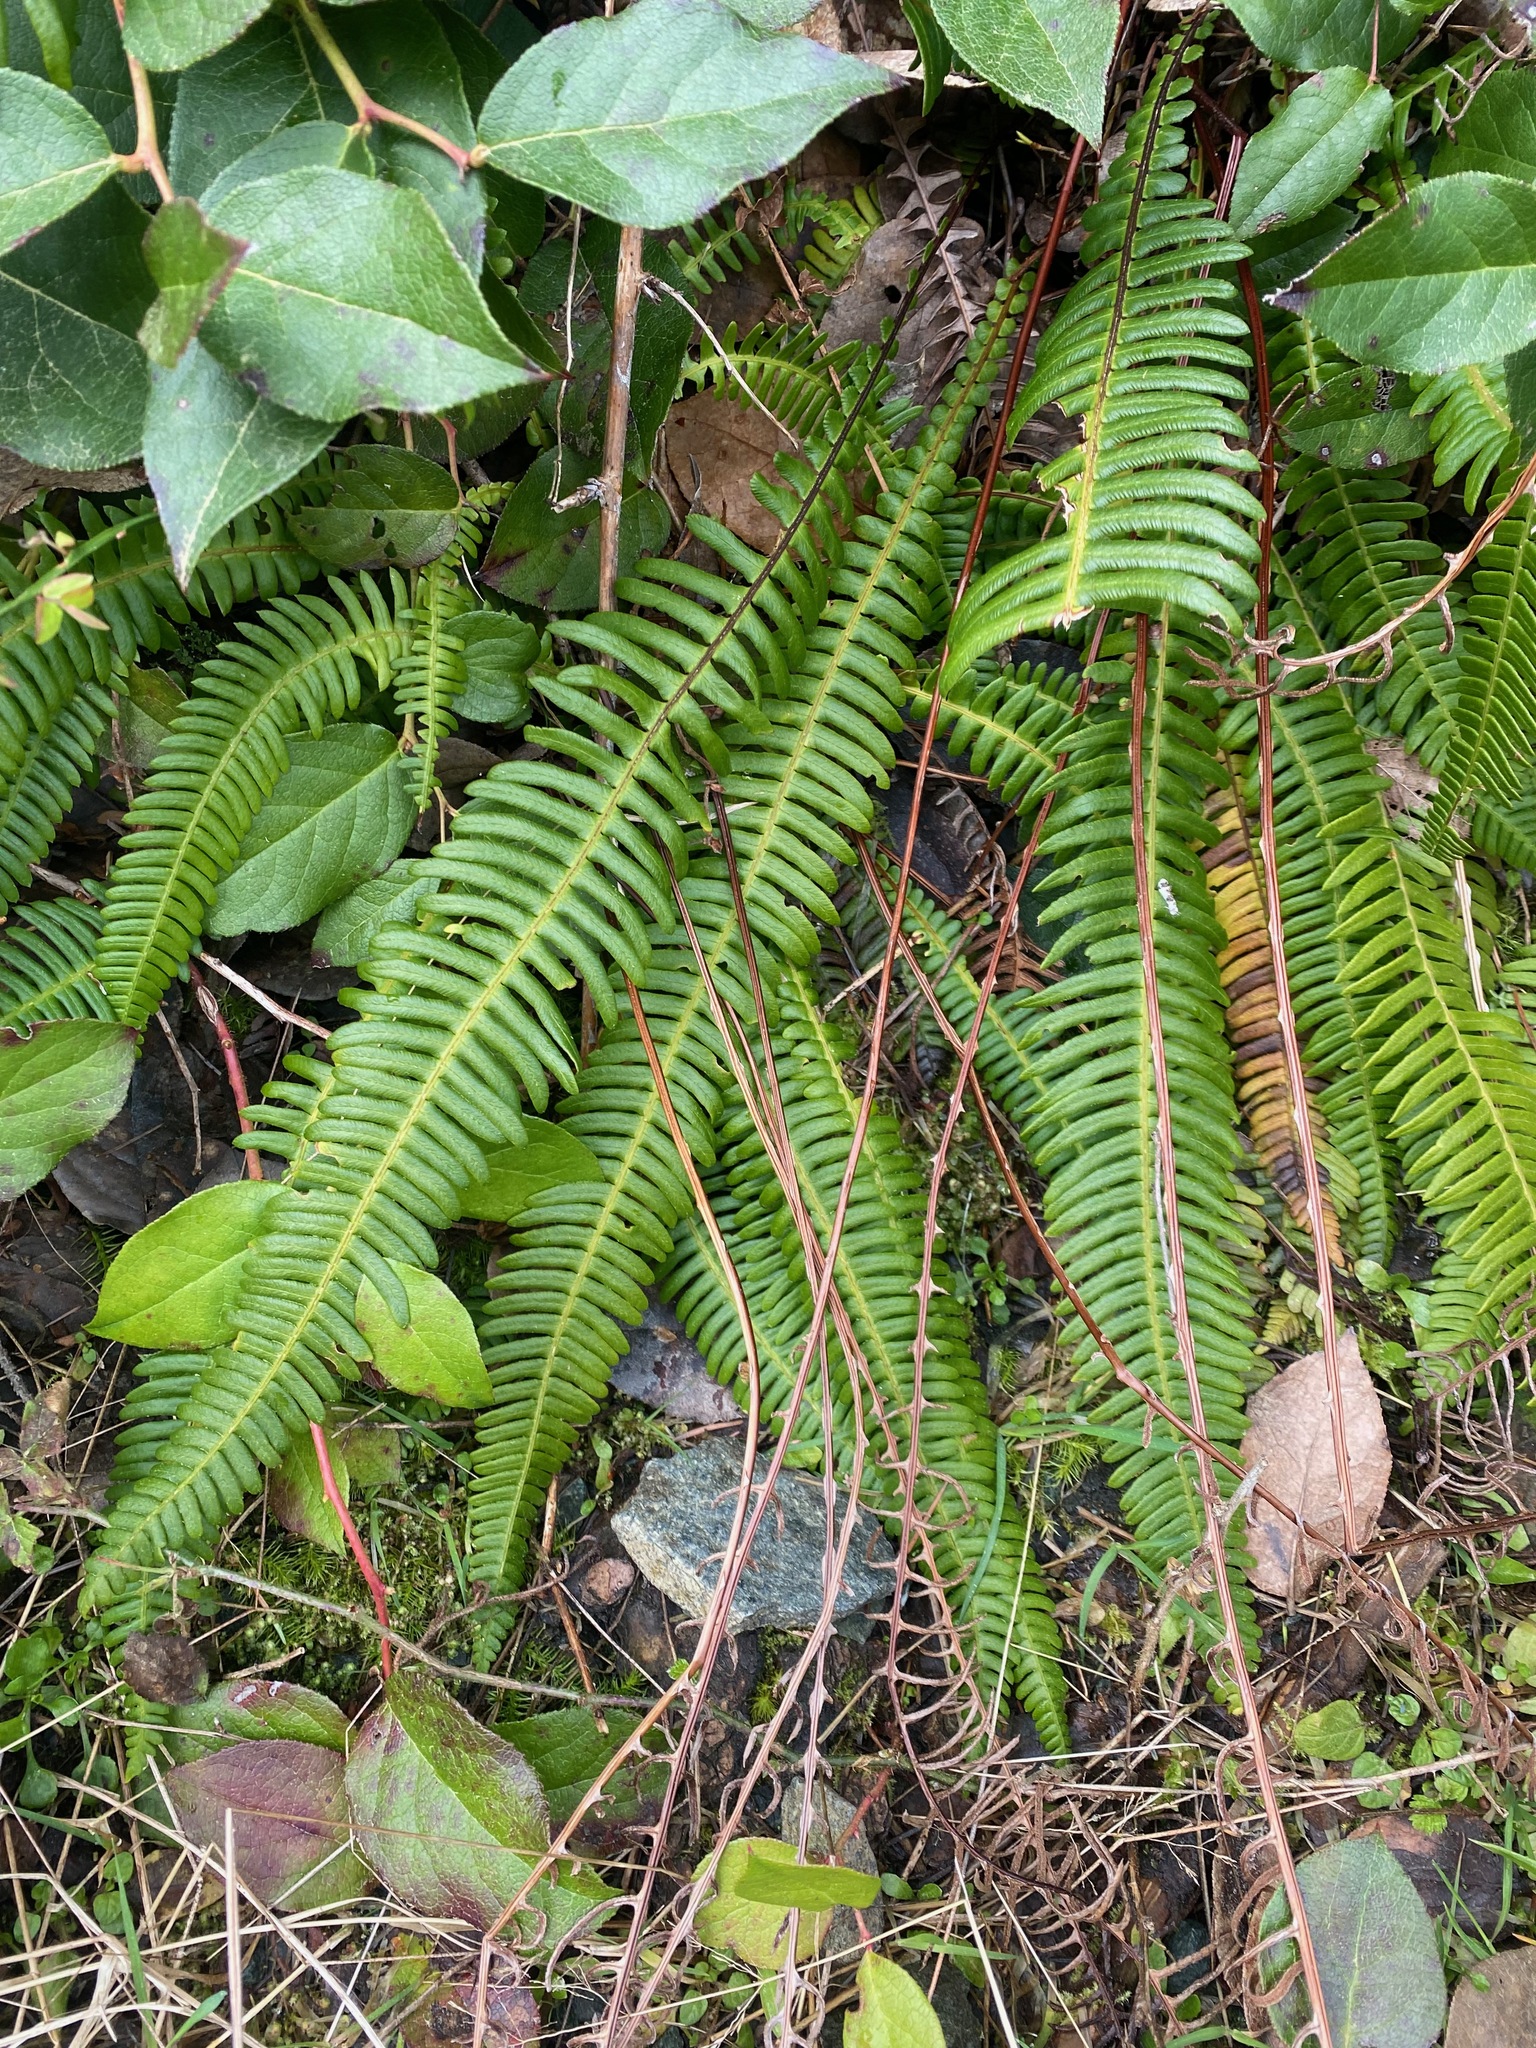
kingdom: Plantae
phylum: Tracheophyta
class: Polypodiopsida
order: Polypodiales
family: Blechnaceae
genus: Struthiopteris
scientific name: Struthiopteris spicant
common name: Deer fern
